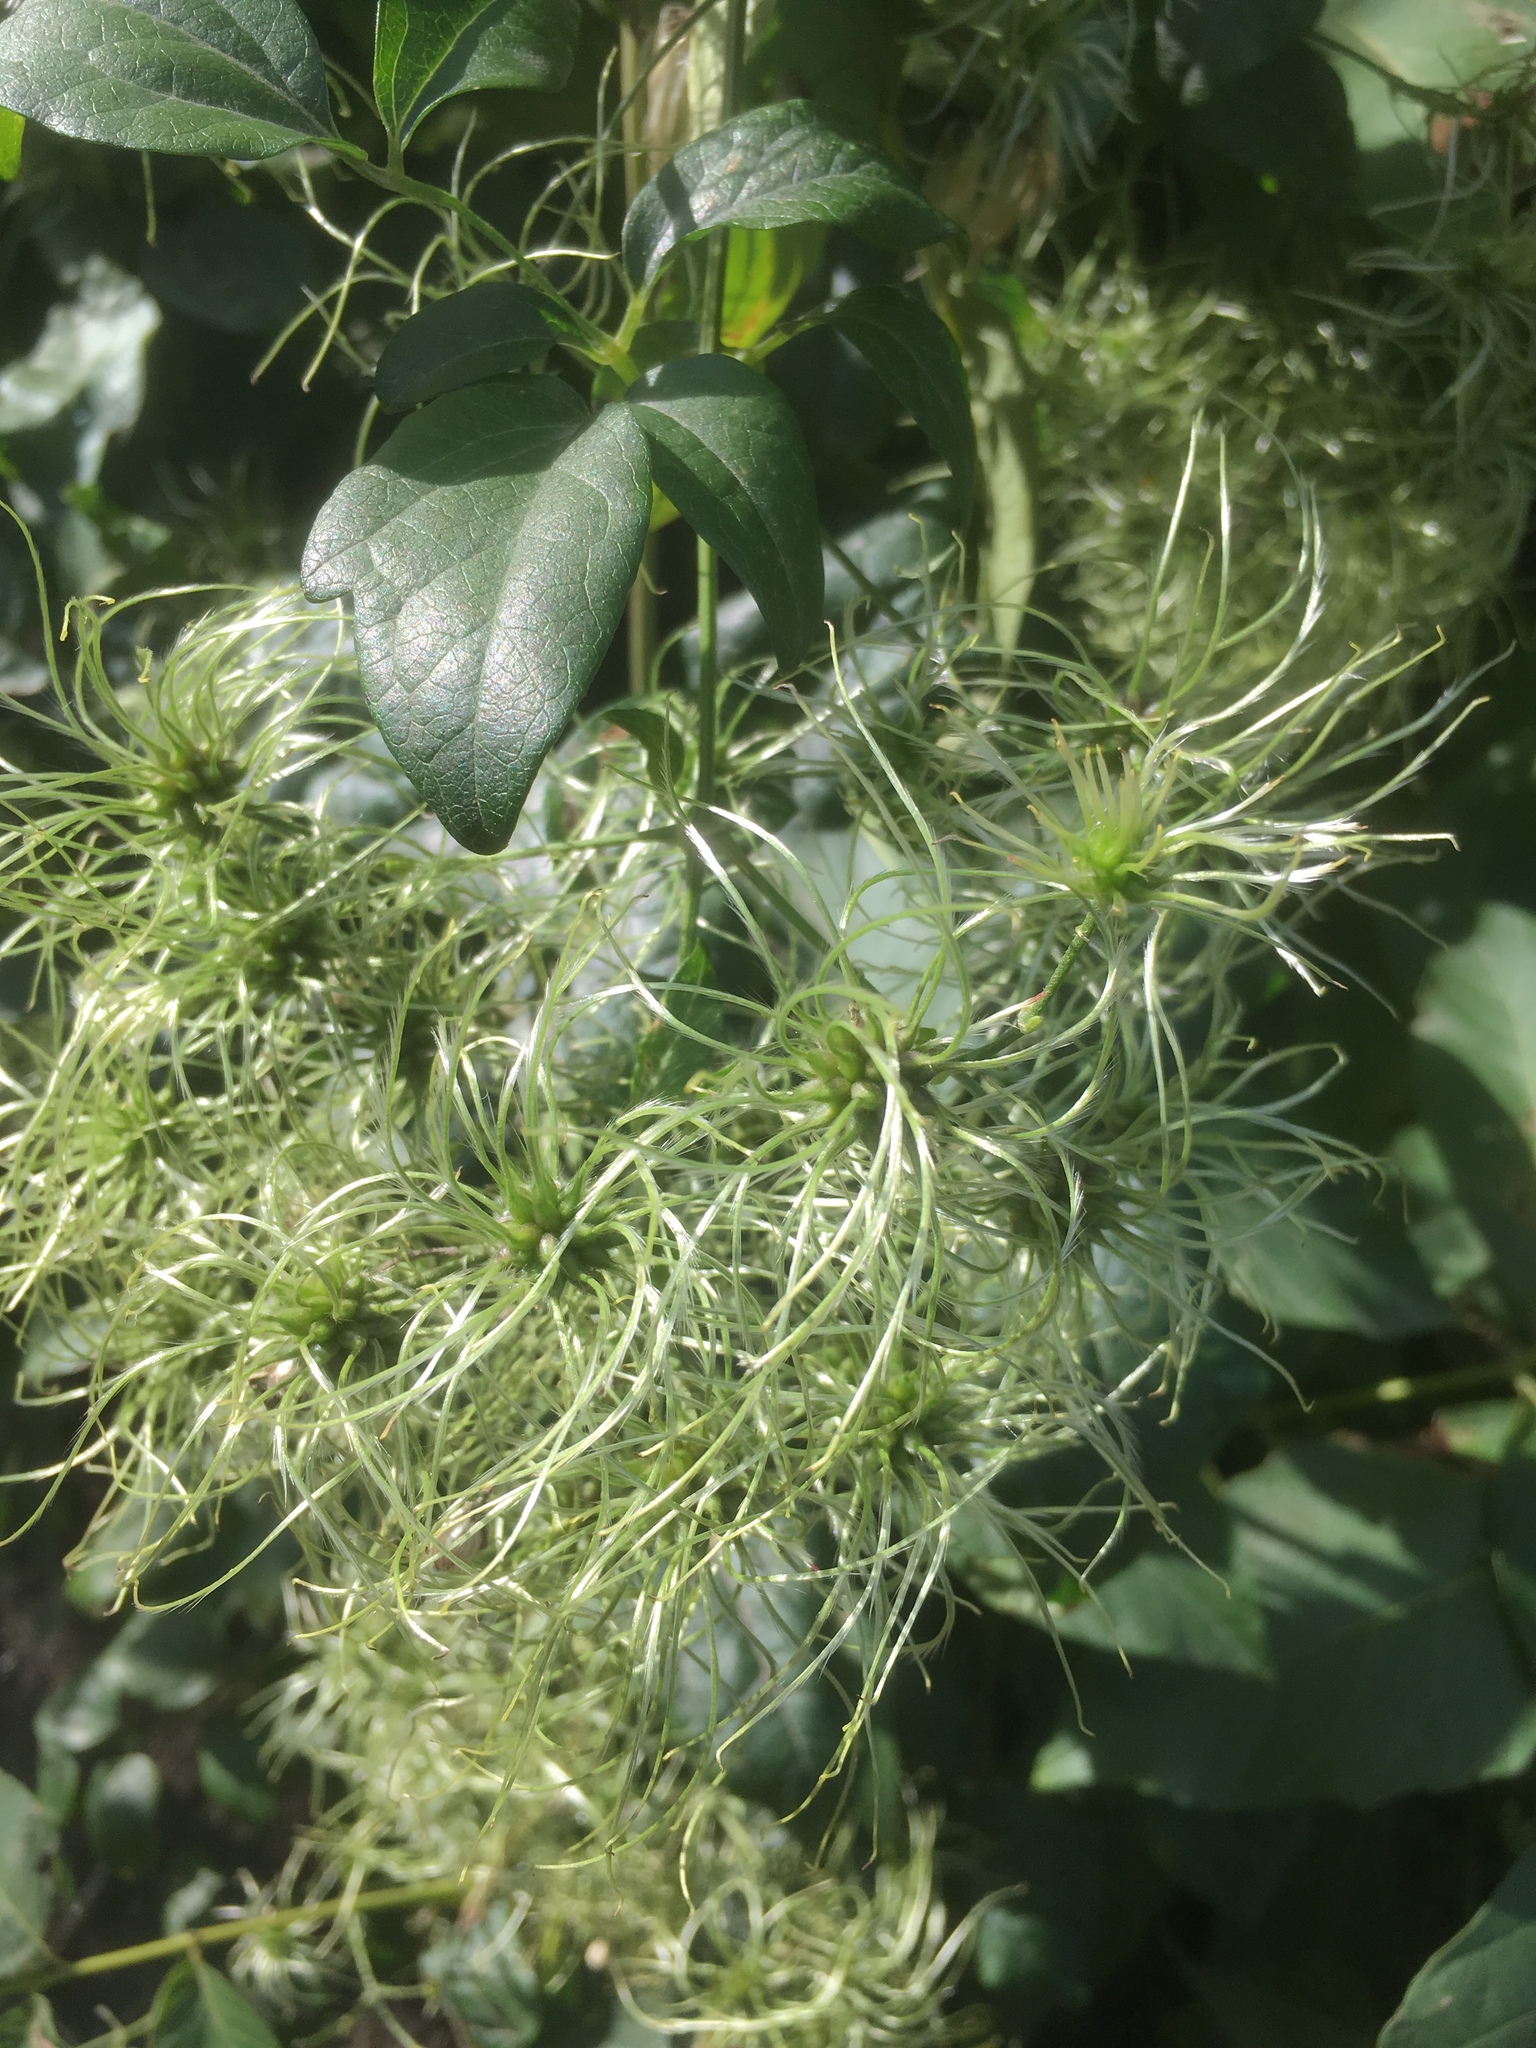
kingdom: Plantae
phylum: Tracheophyta
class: Magnoliopsida
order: Ranunculales
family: Ranunculaceae
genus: Clematis
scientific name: Clematis vitalba
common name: Evergreen clematis
